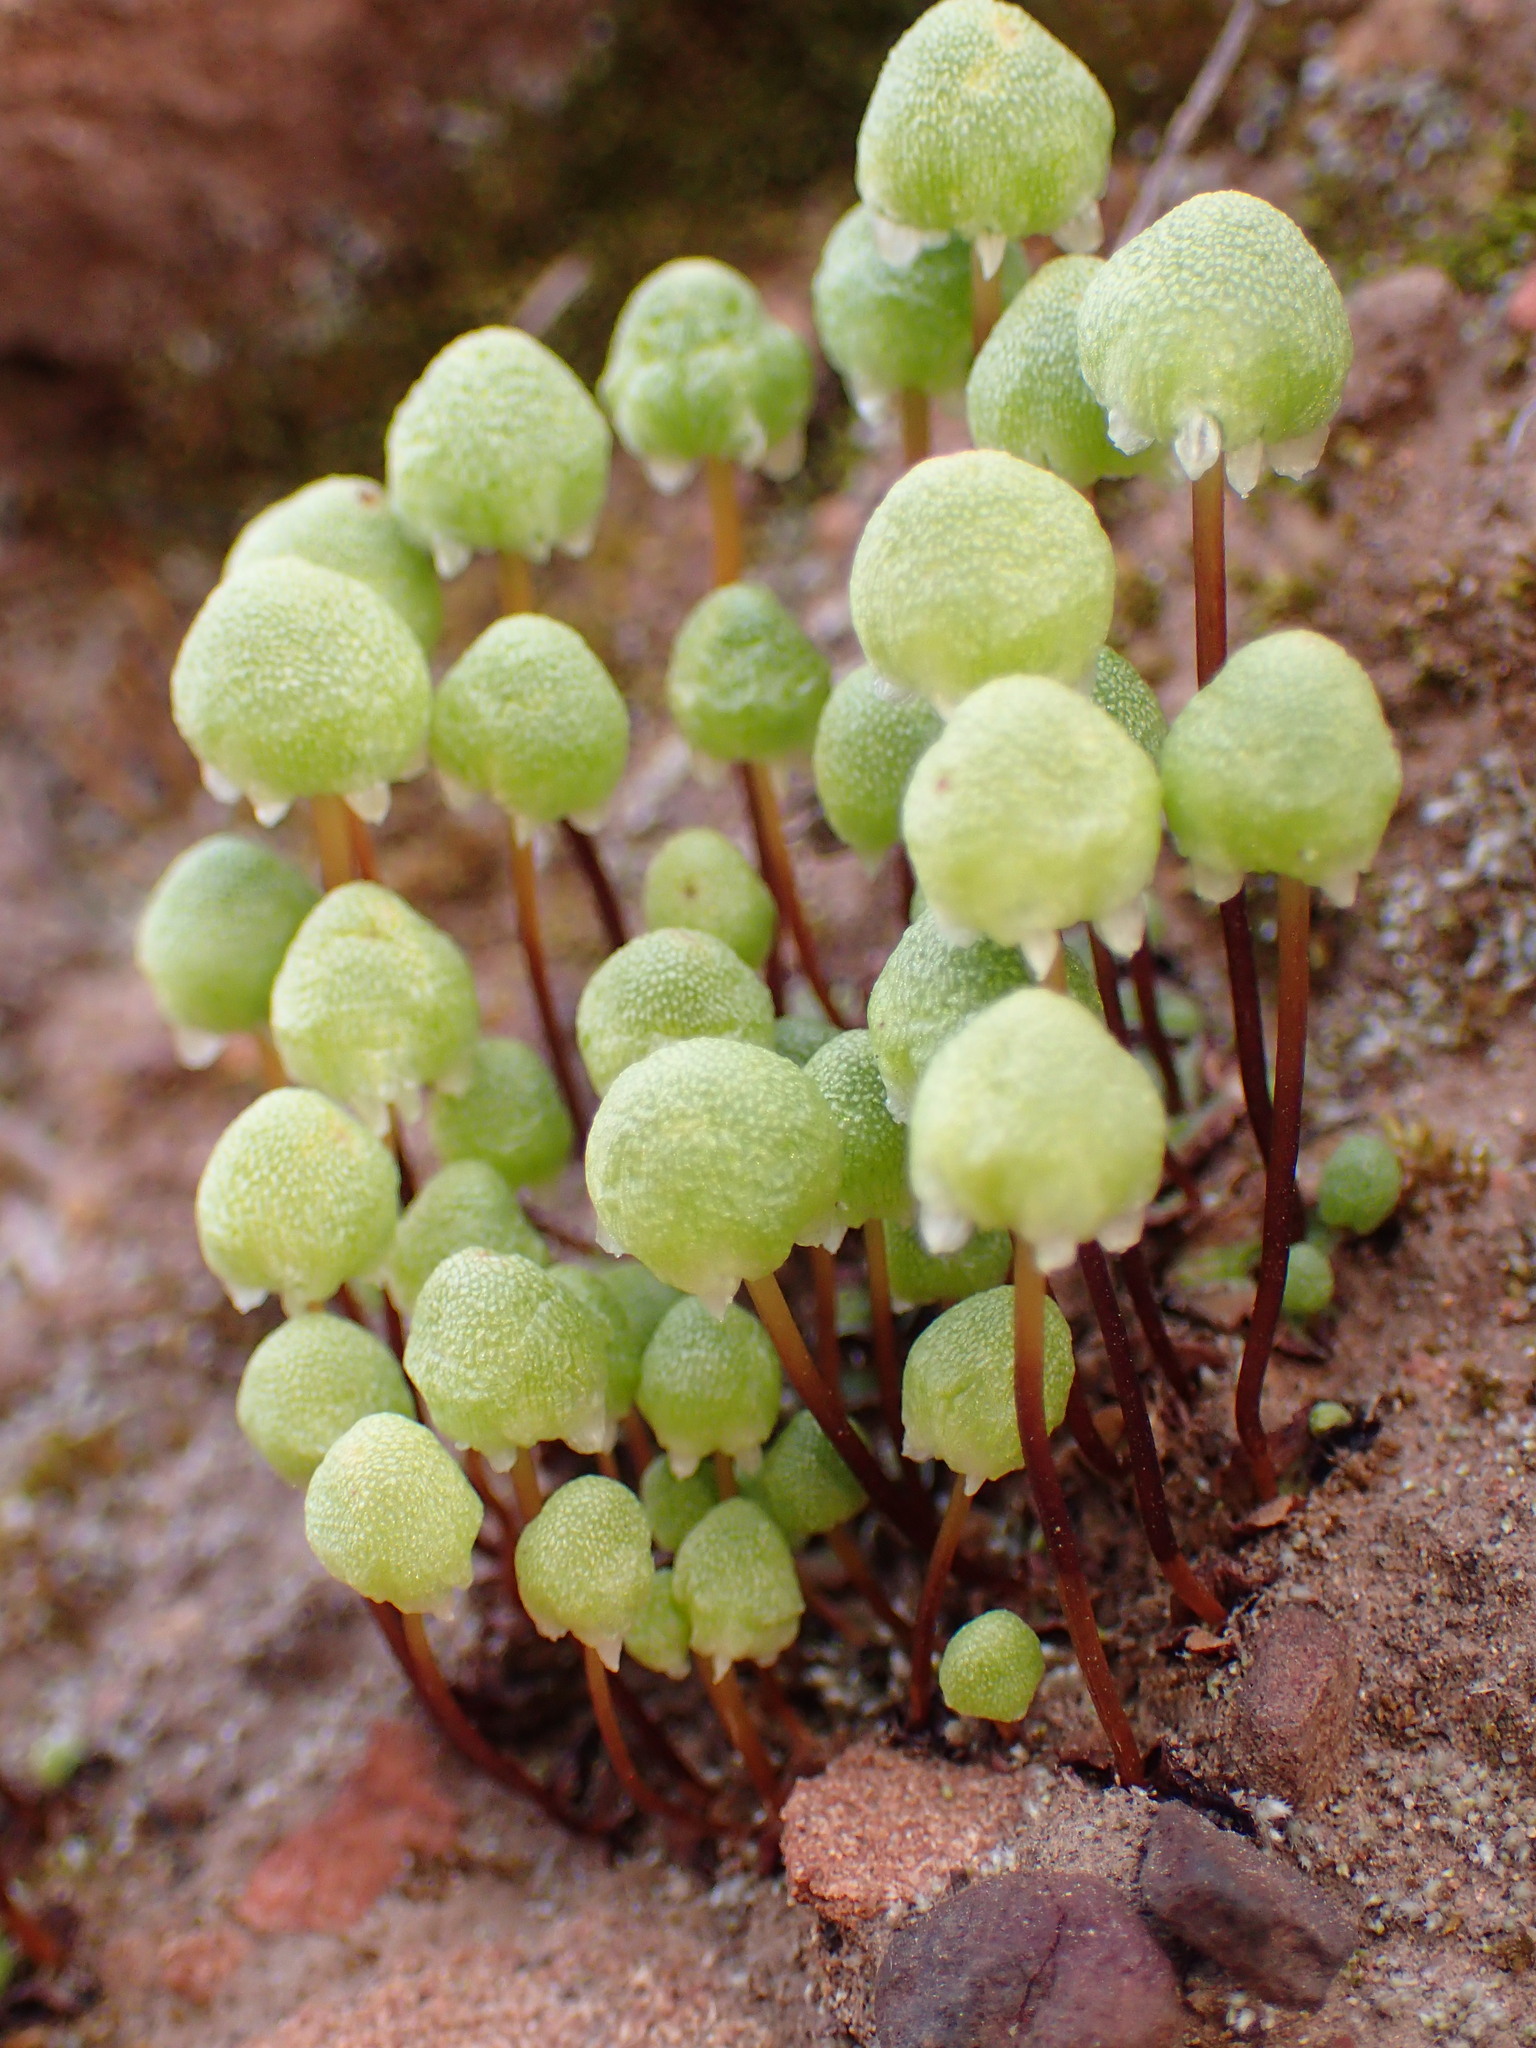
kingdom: Plantae
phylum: Marchantiophyta
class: Marchantiopsida
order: Marchantiales
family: Aytoniaceae
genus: Asterella
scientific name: Asterella palmeri
